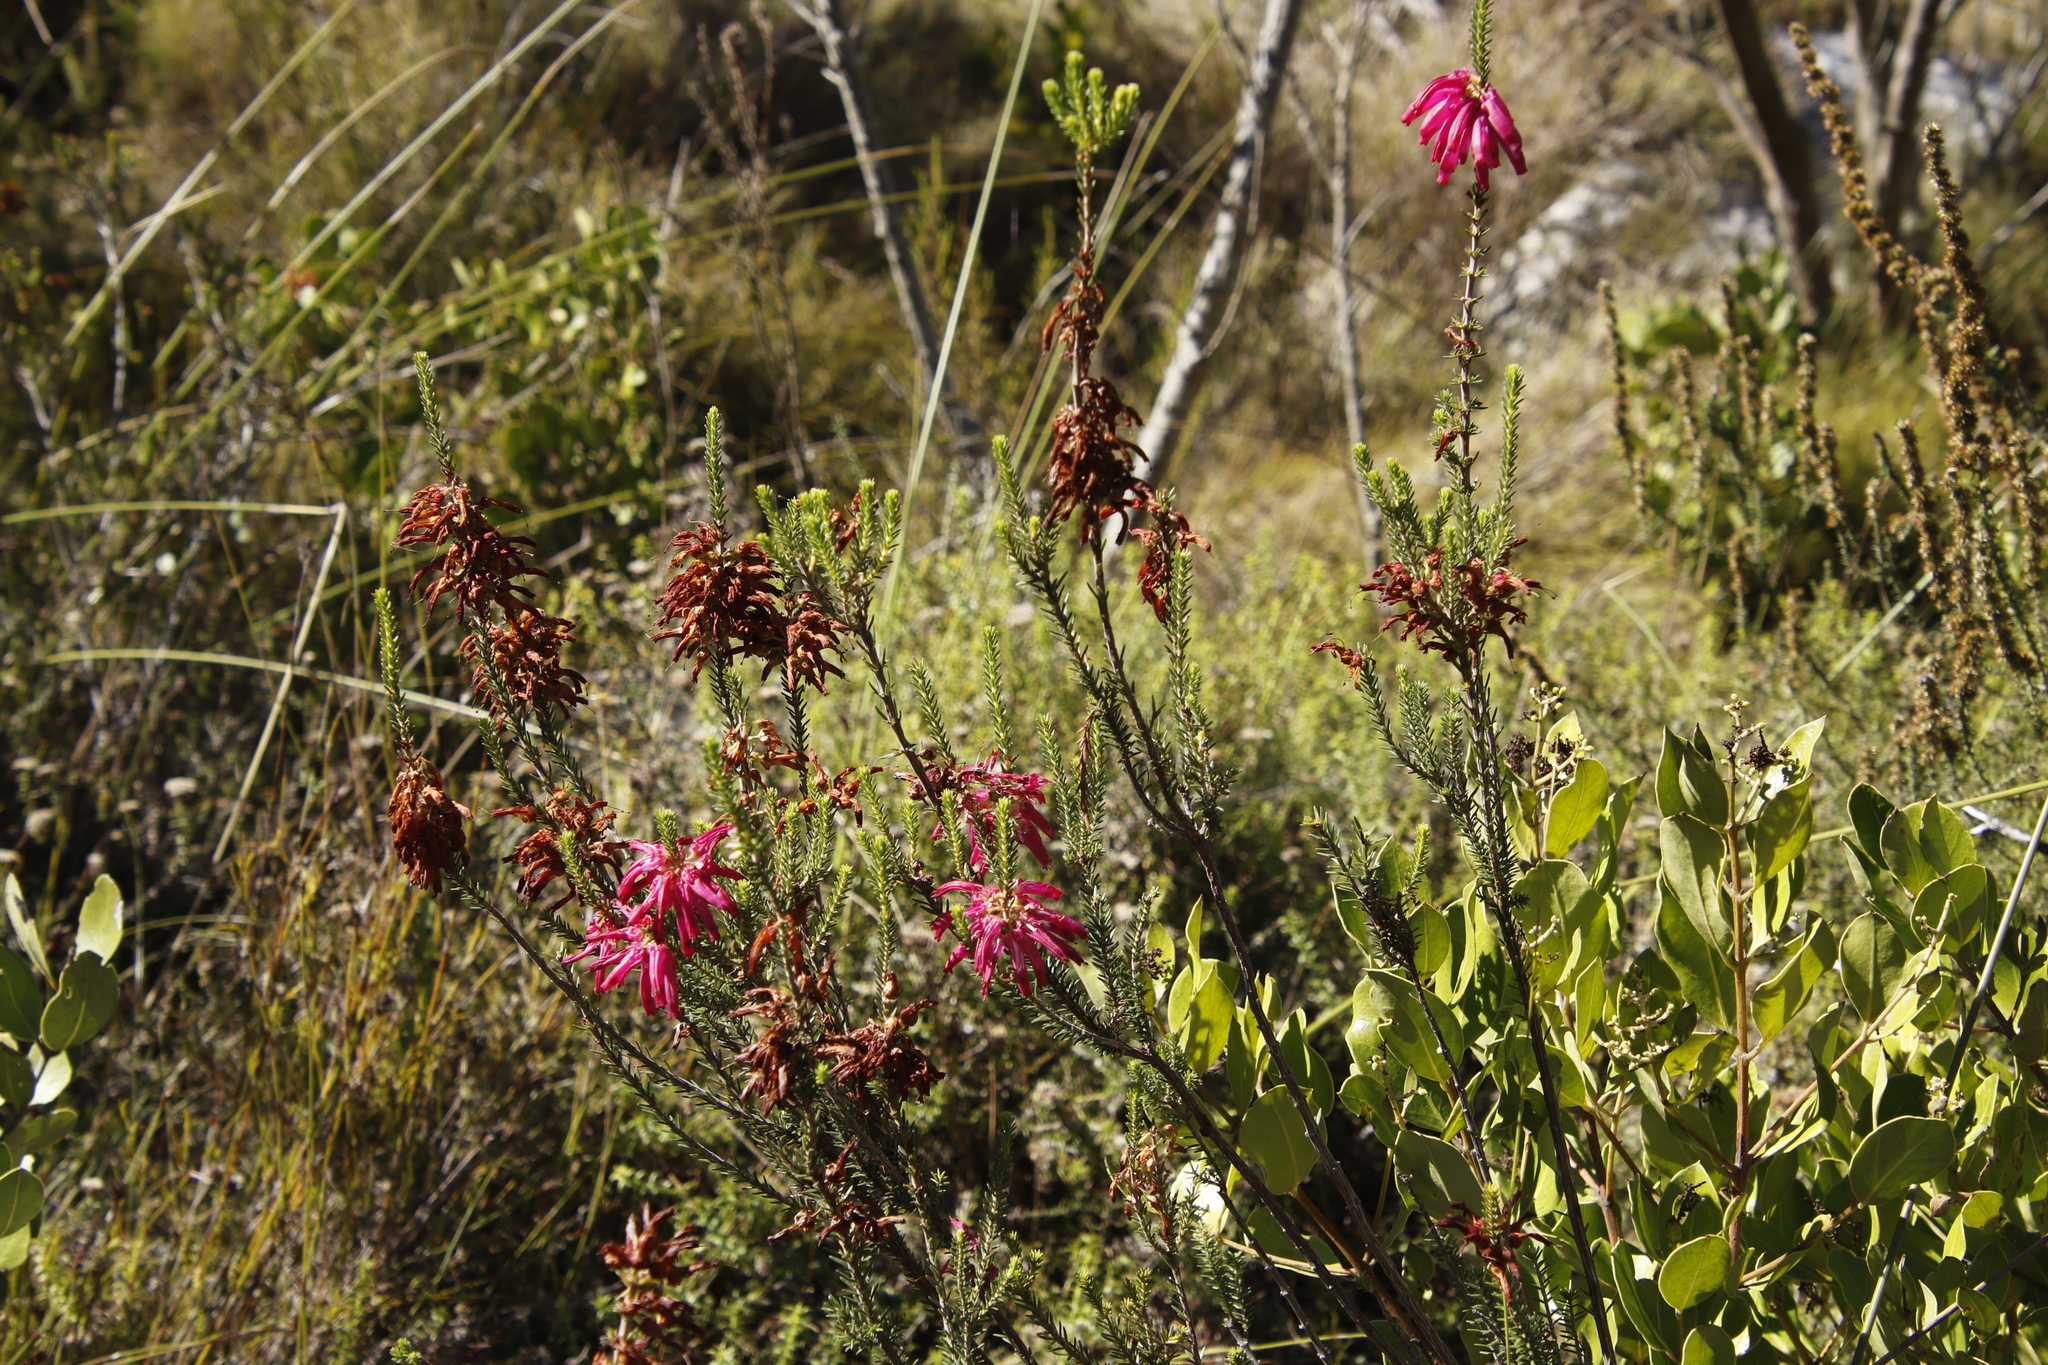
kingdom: Plantae
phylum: Tracheophyta
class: Magnoliopsida
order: Ericales
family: Ericaceae
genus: Erica
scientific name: Erica mammosa
